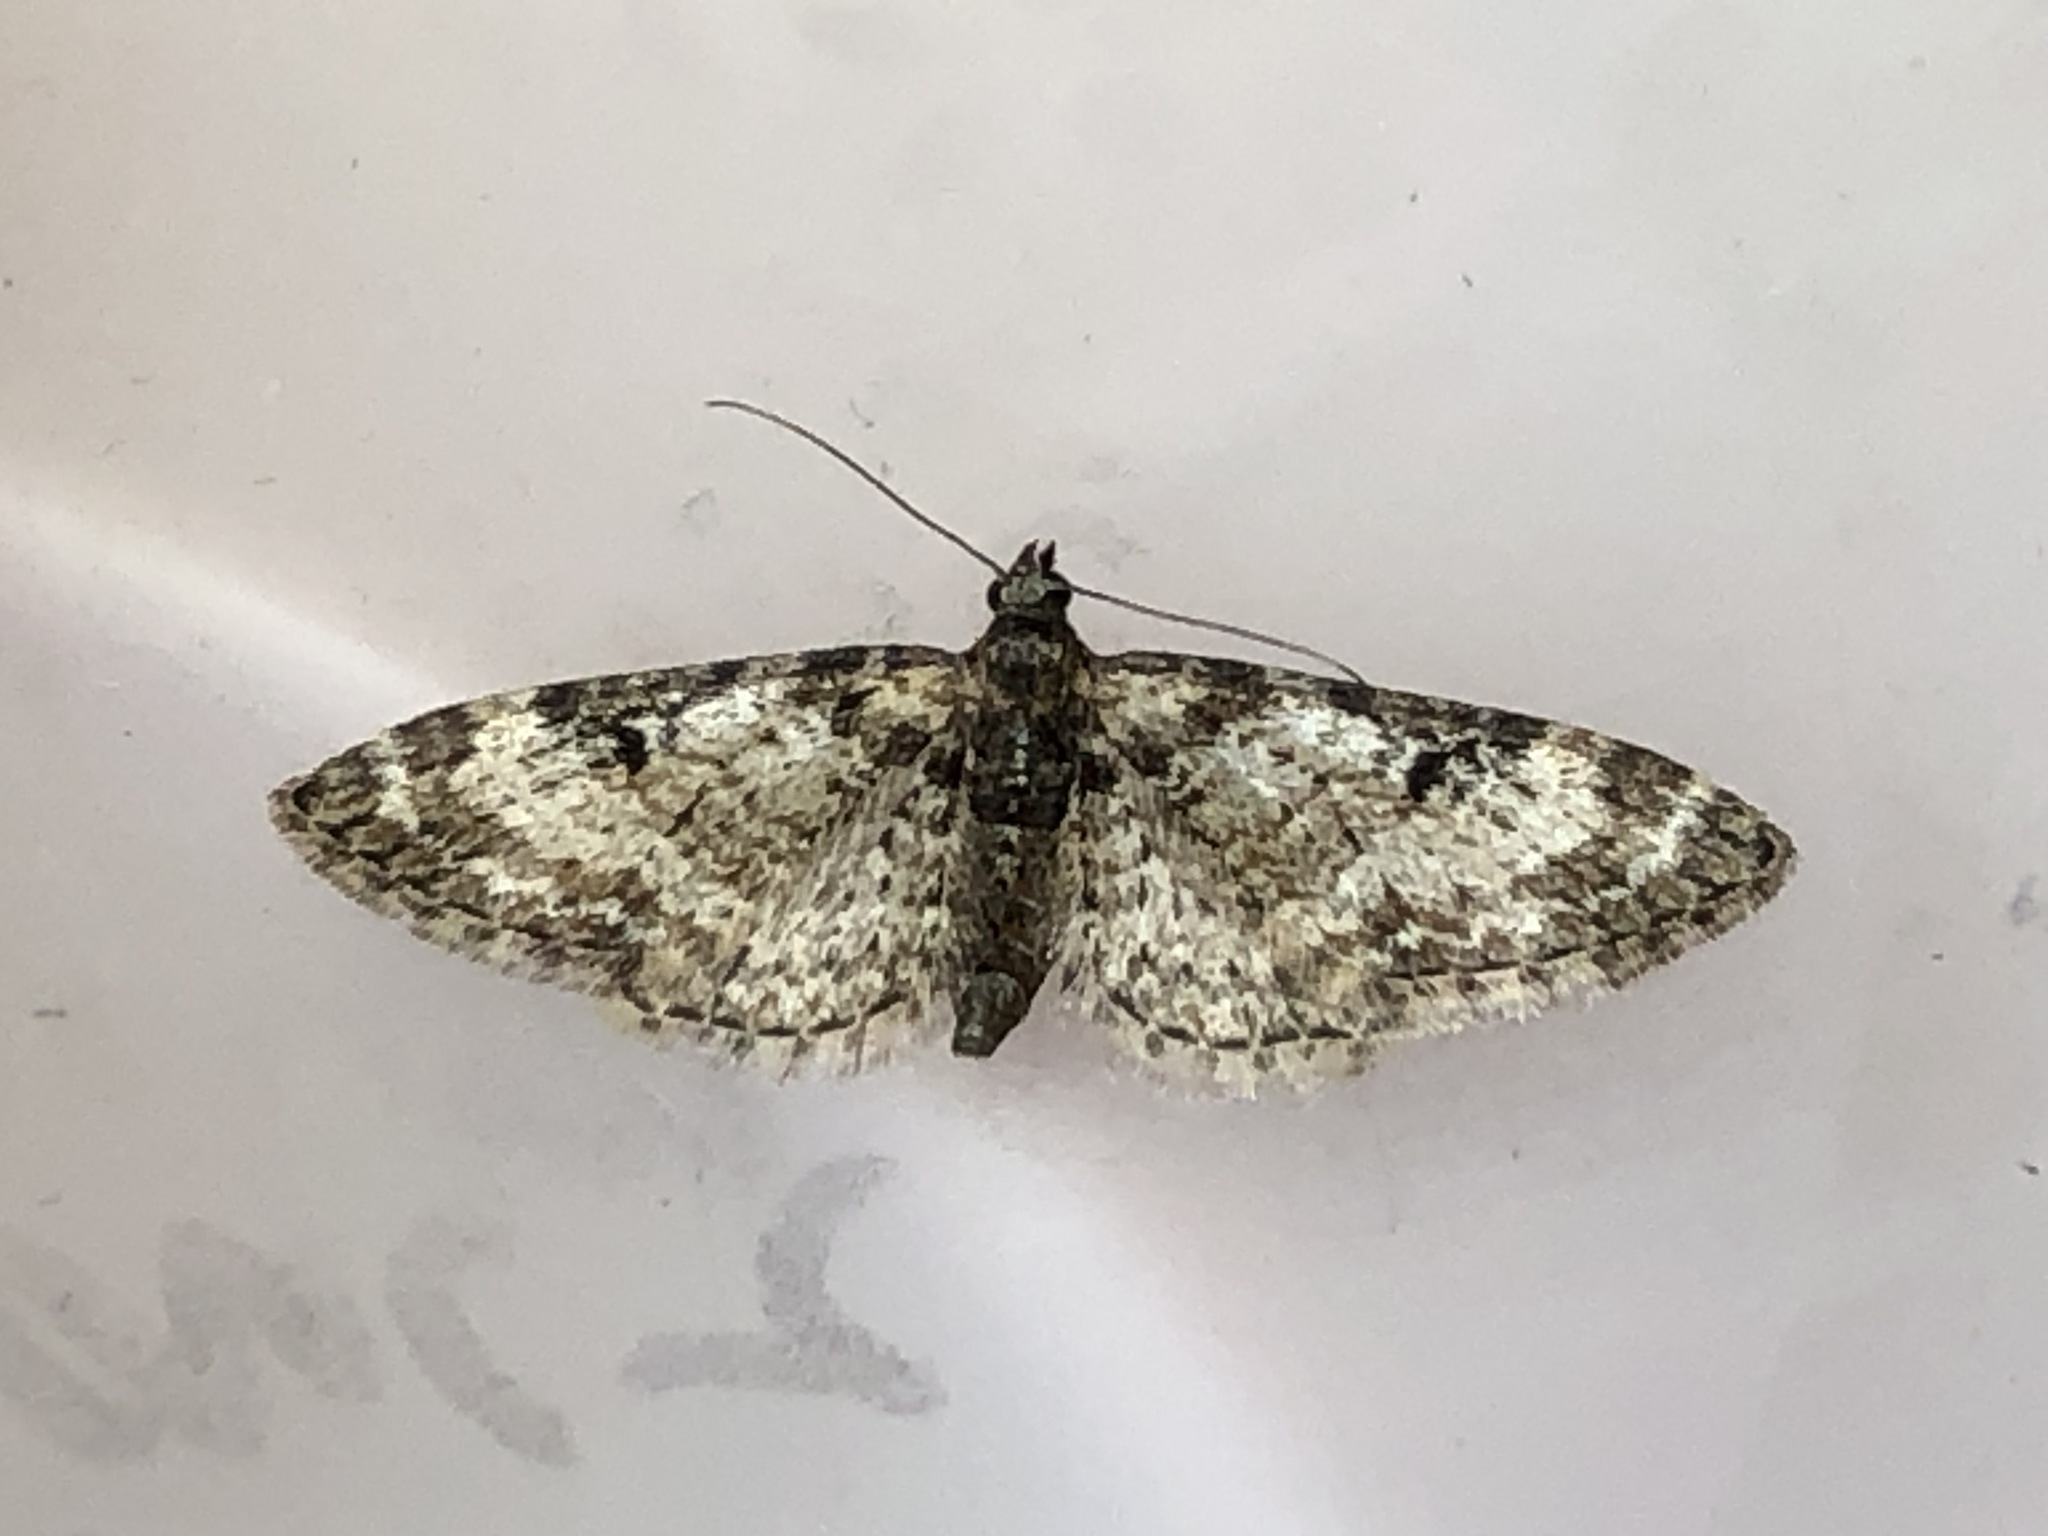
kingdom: Animalia
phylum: Arthropoda
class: Insecta
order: Lepidoptera
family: Geometridae
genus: Eupithecia
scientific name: Eupithecia irriguata
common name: Marbled pug
